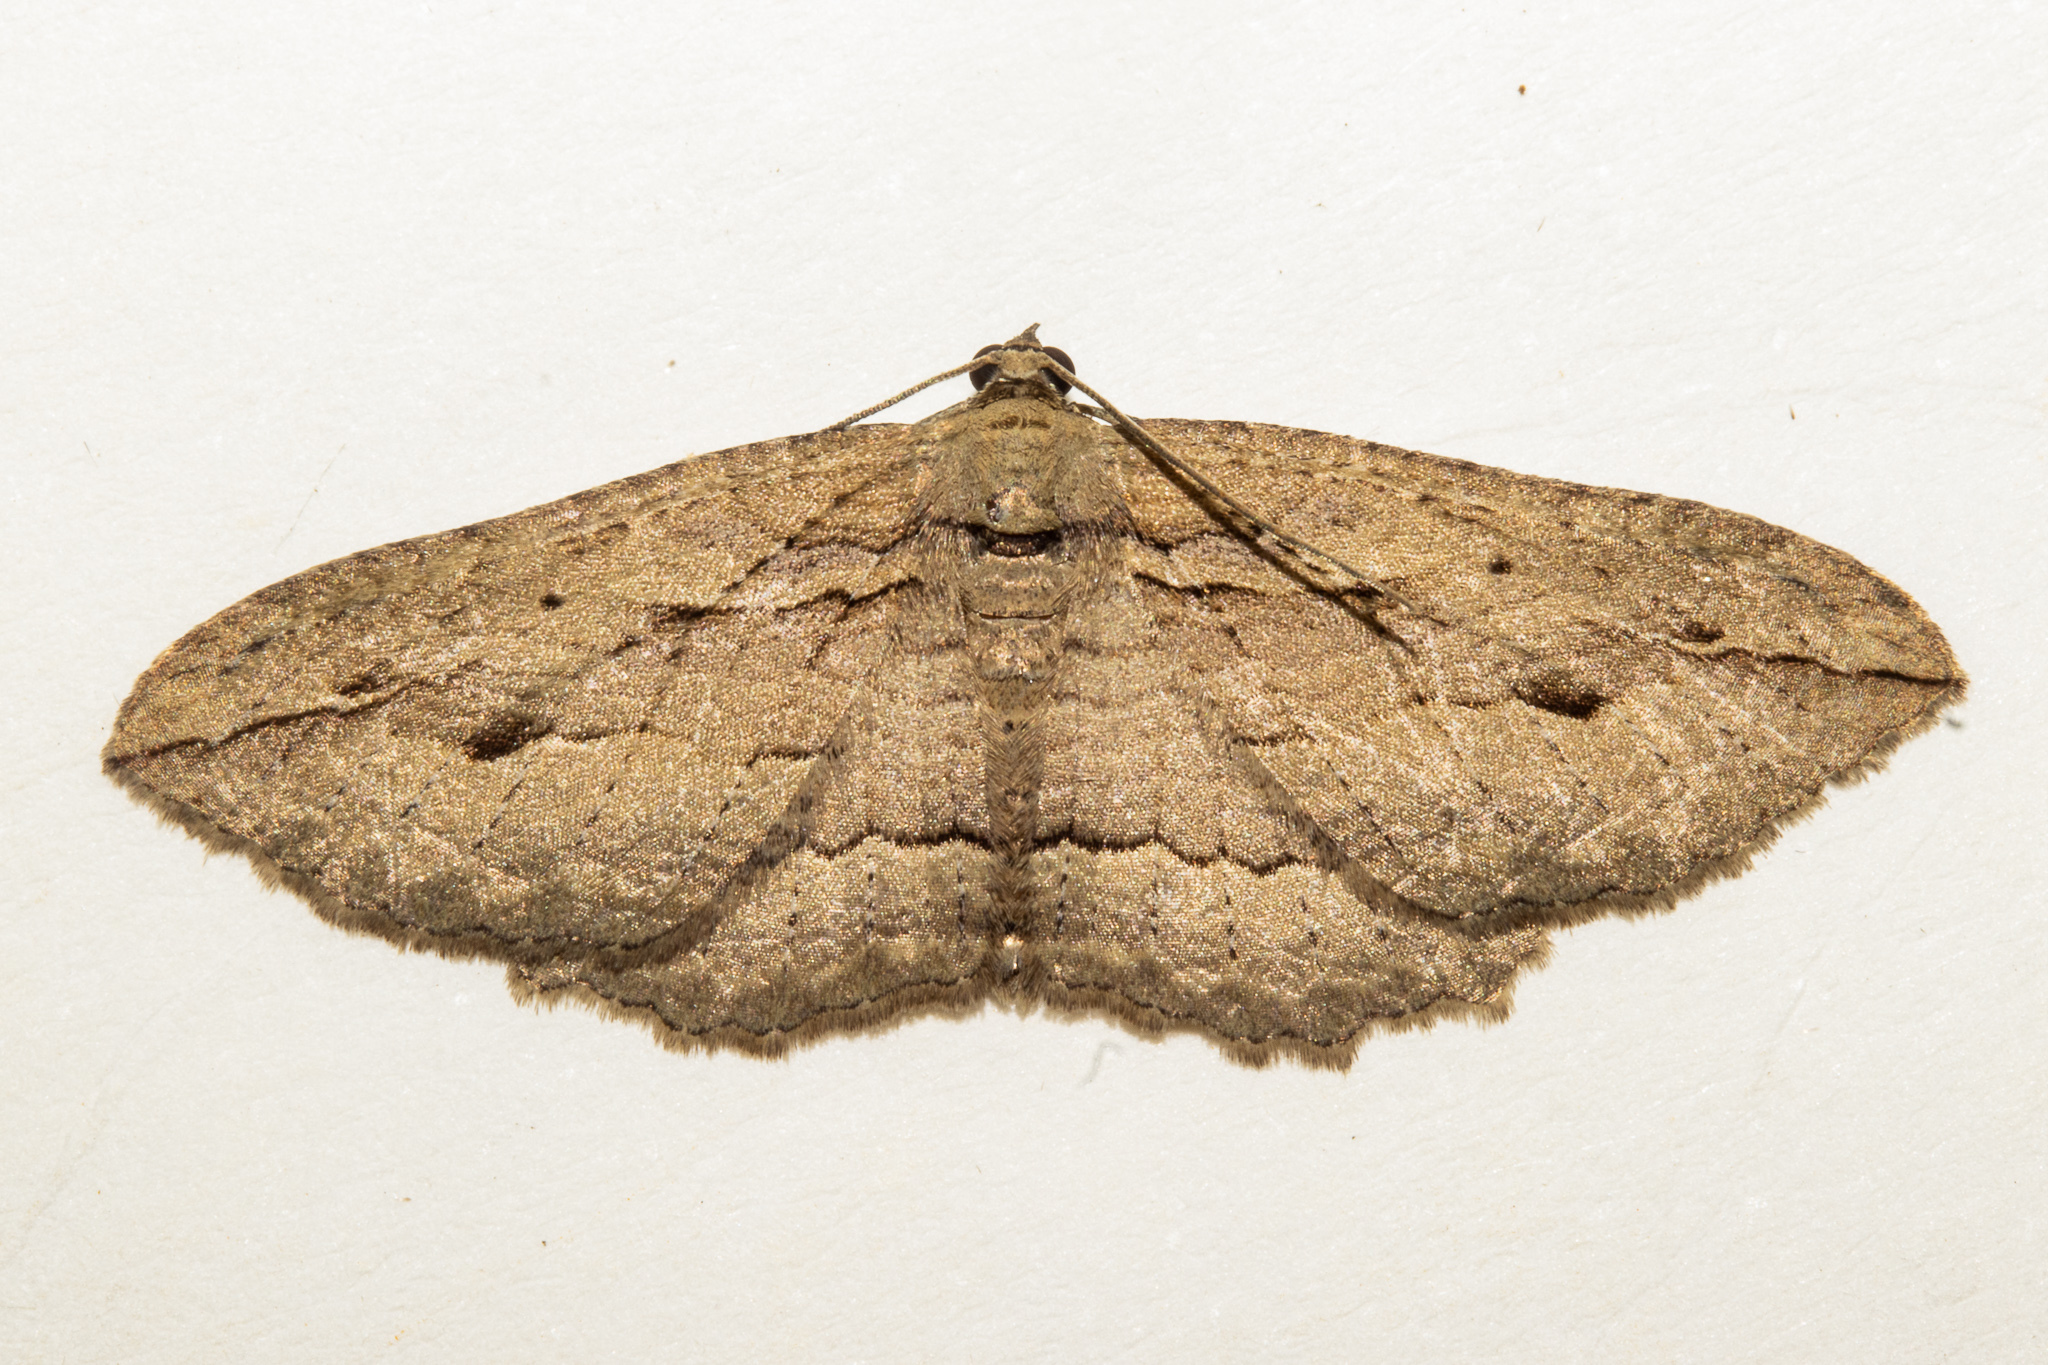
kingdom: Animalia
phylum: Arthropoda
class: Insecta
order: Lepidoptera
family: Geometridae
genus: Austrocidaria
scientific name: Austrocidaria gobiata
